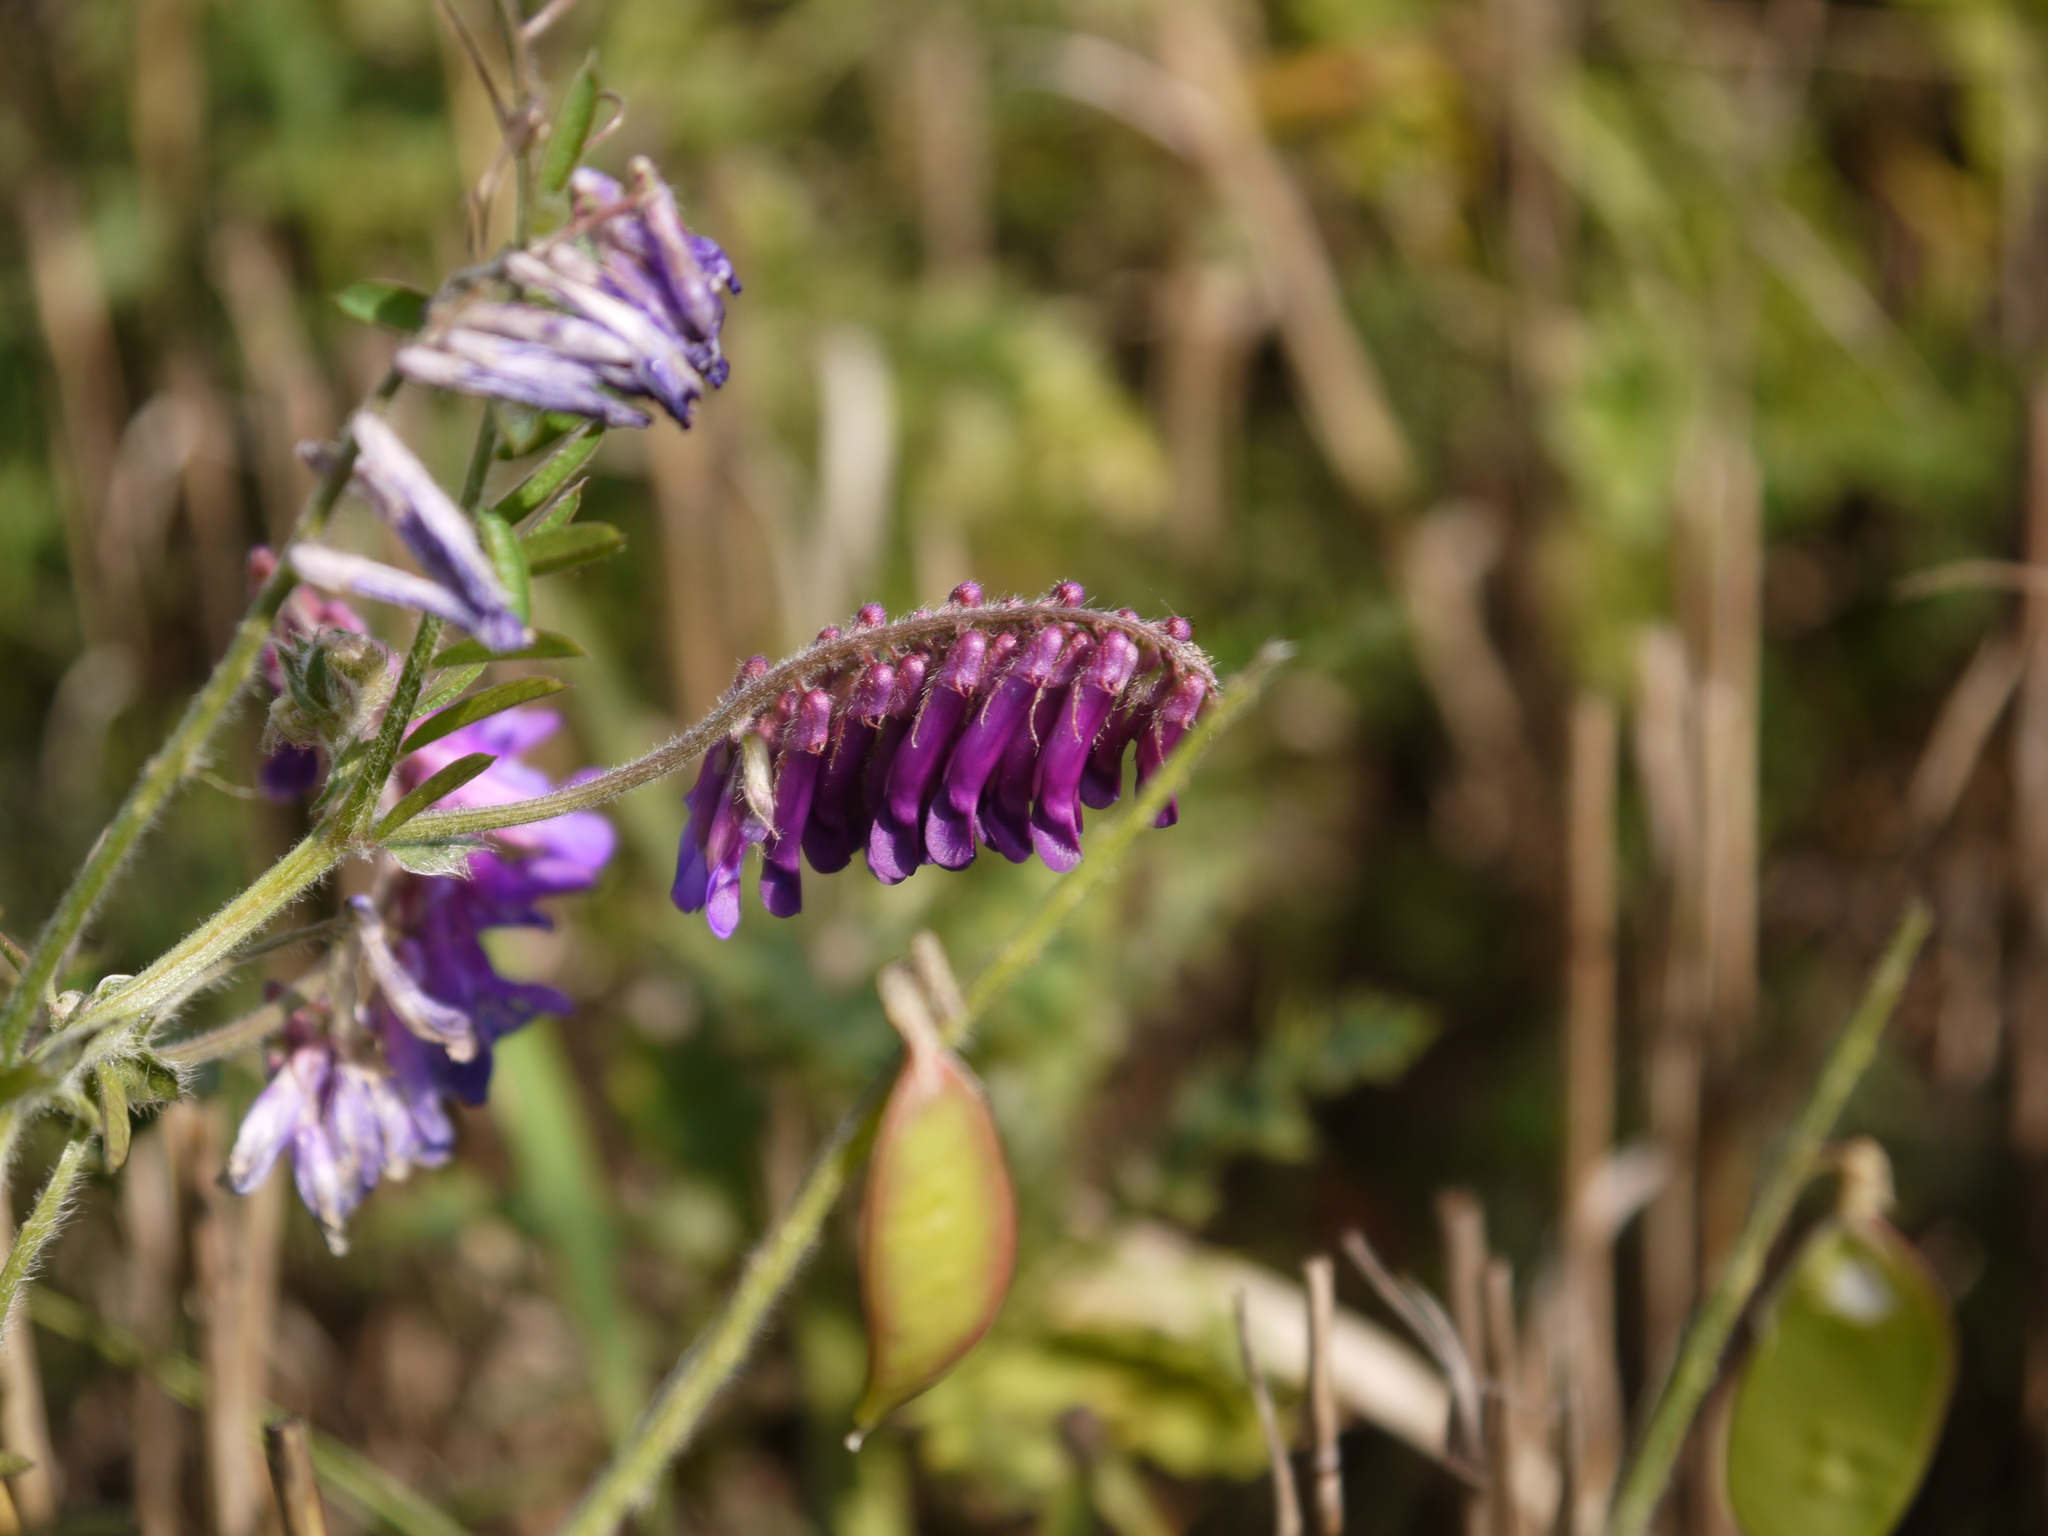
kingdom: Plantae
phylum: Tracheophyta
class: Magnoliopsida
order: Fabales
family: Fabaceae
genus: Vicia
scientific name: Vicia villosa
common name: Fodder vetch
